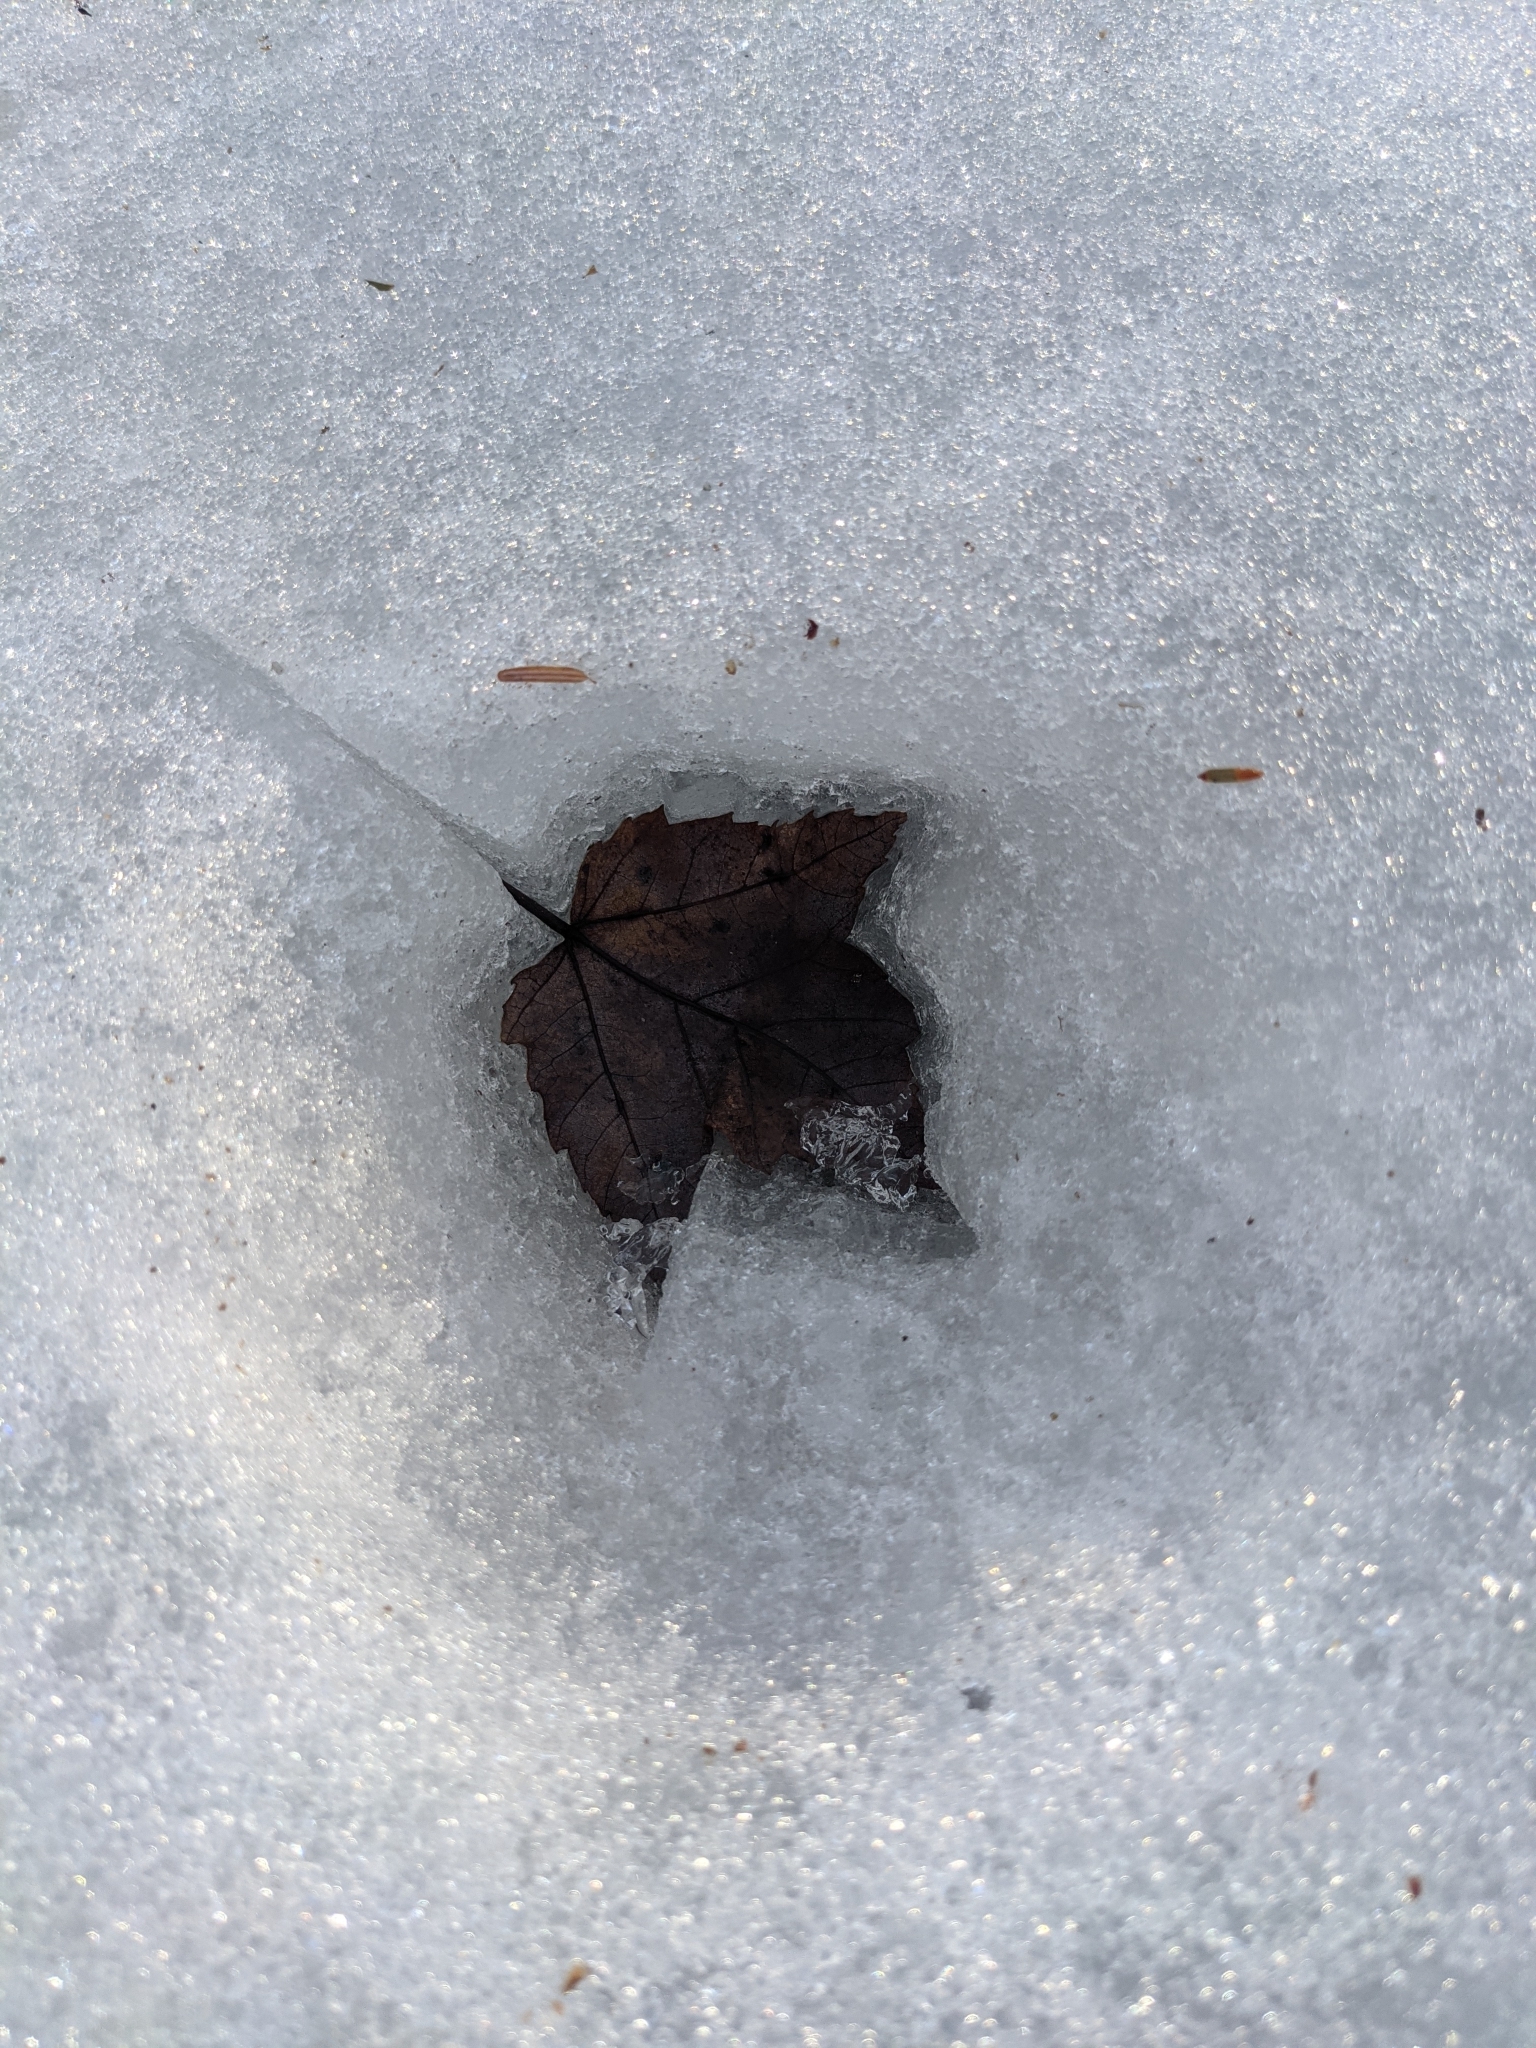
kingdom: Plantae
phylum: Tracheophyta
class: Magnoliopsida
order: Sapindales
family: Sapindaceae
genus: Acer
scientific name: Acer rubrum
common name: Red maple
